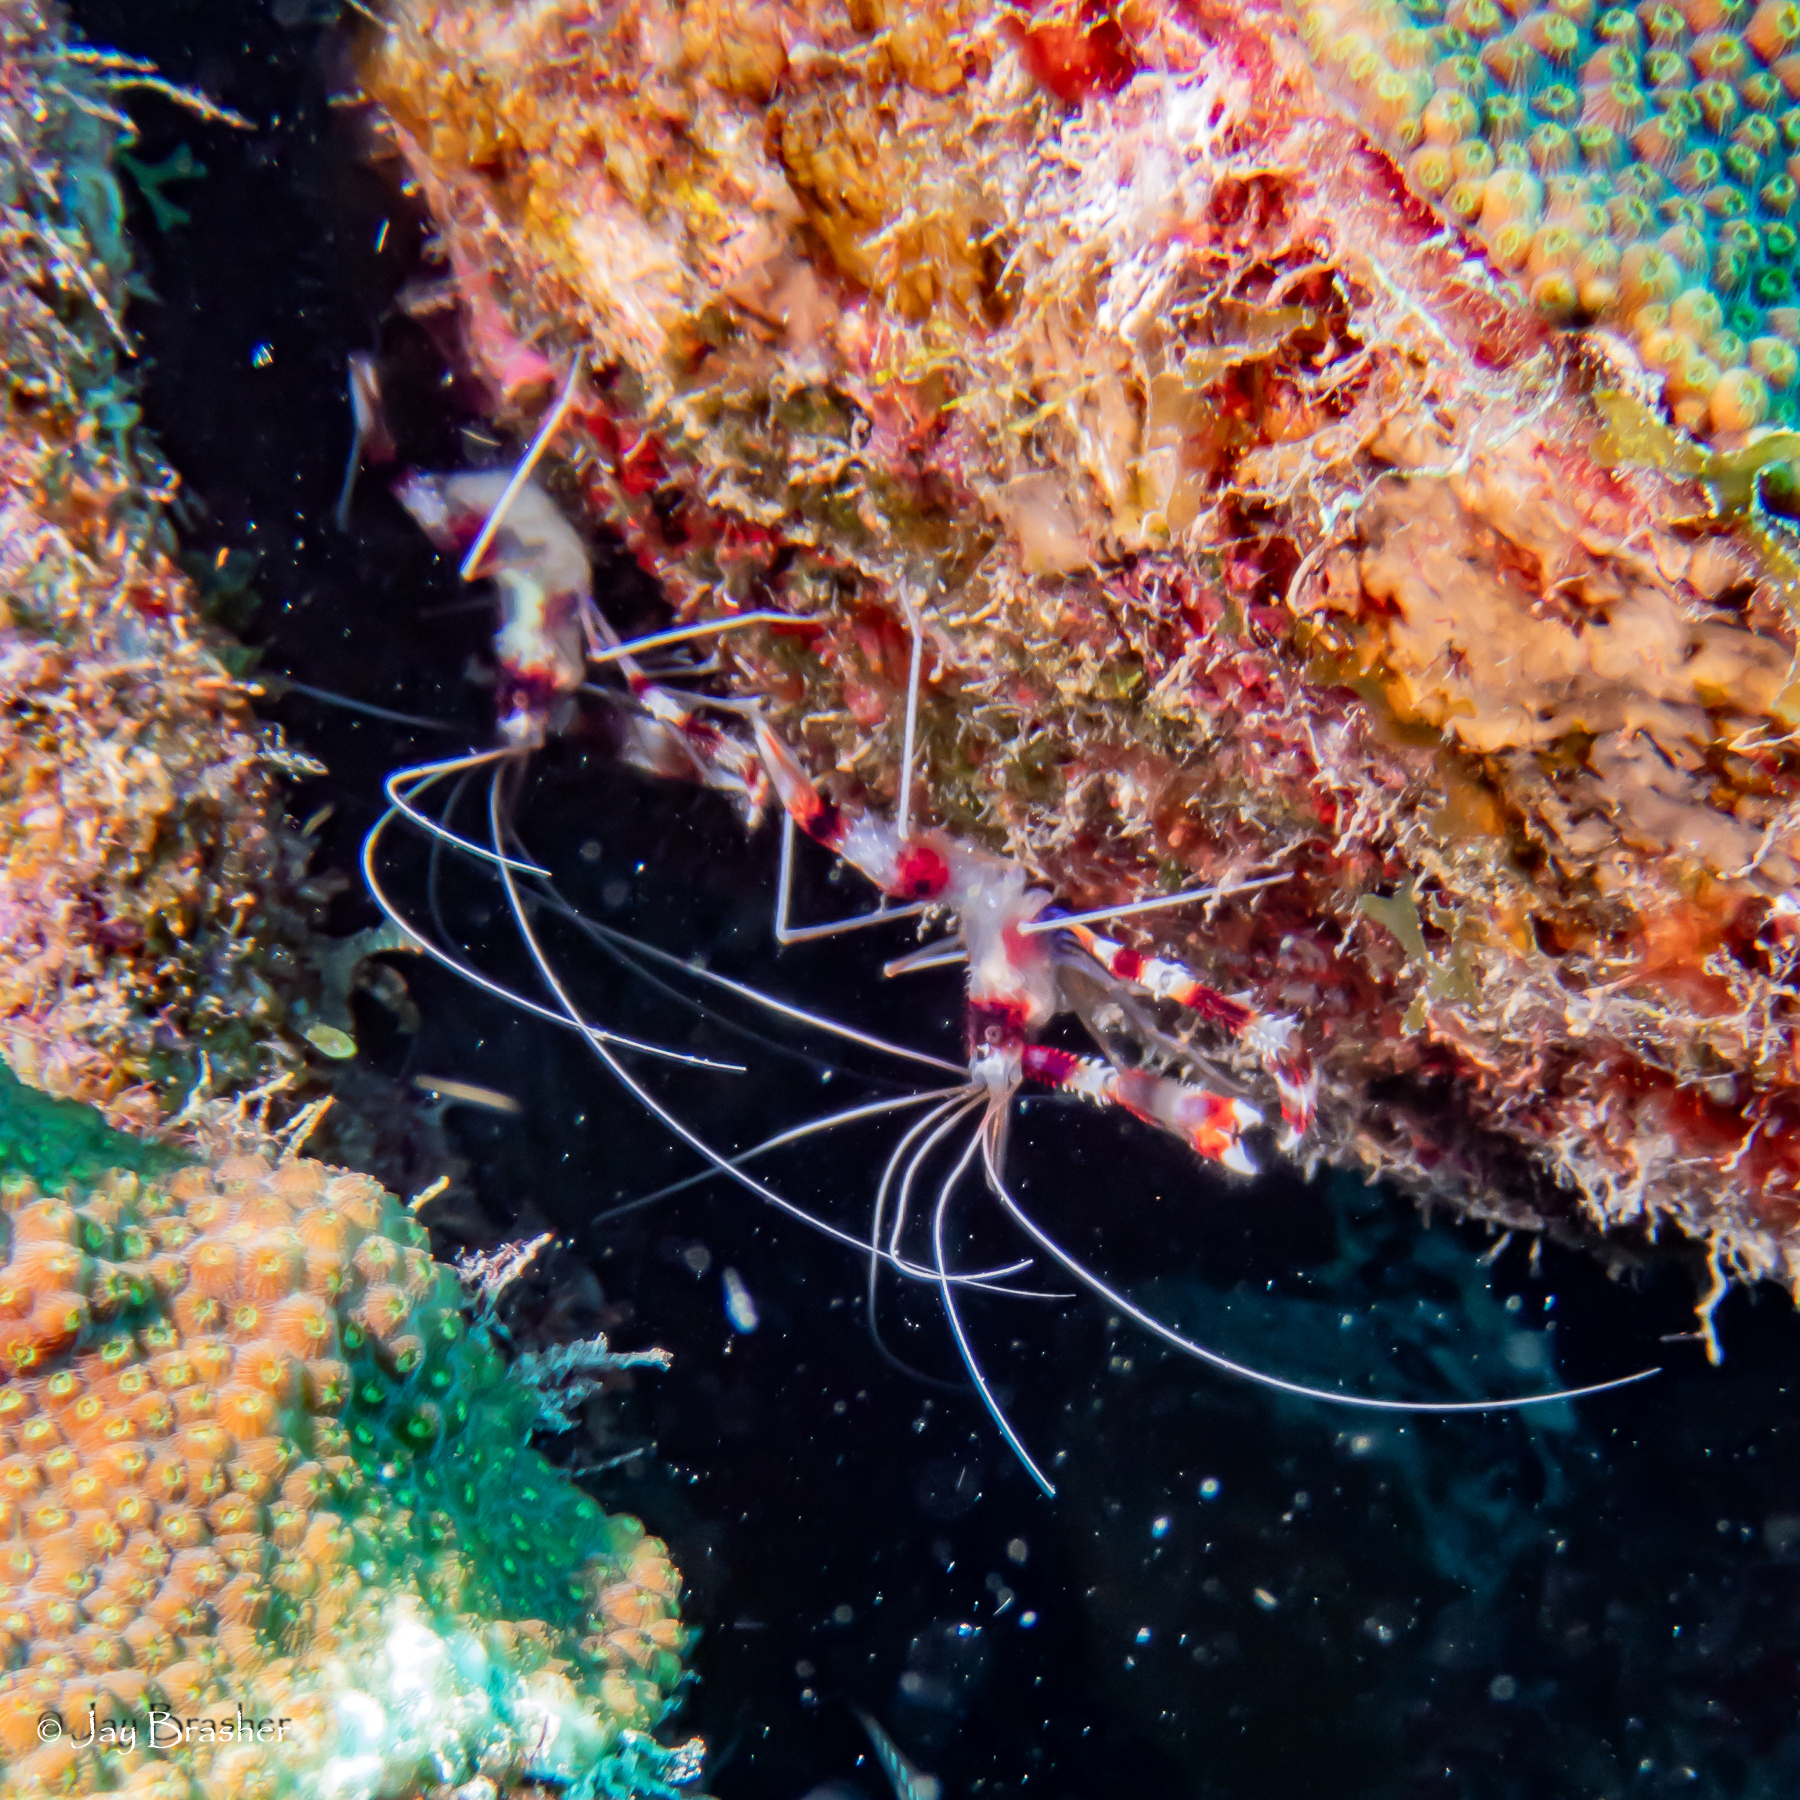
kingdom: Animalia
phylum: Arthropoda
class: Malacostraca
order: Decapoda
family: Stenopodidae
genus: Stenopus
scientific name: Stenopus hispidus
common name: Banded coral shrimp
